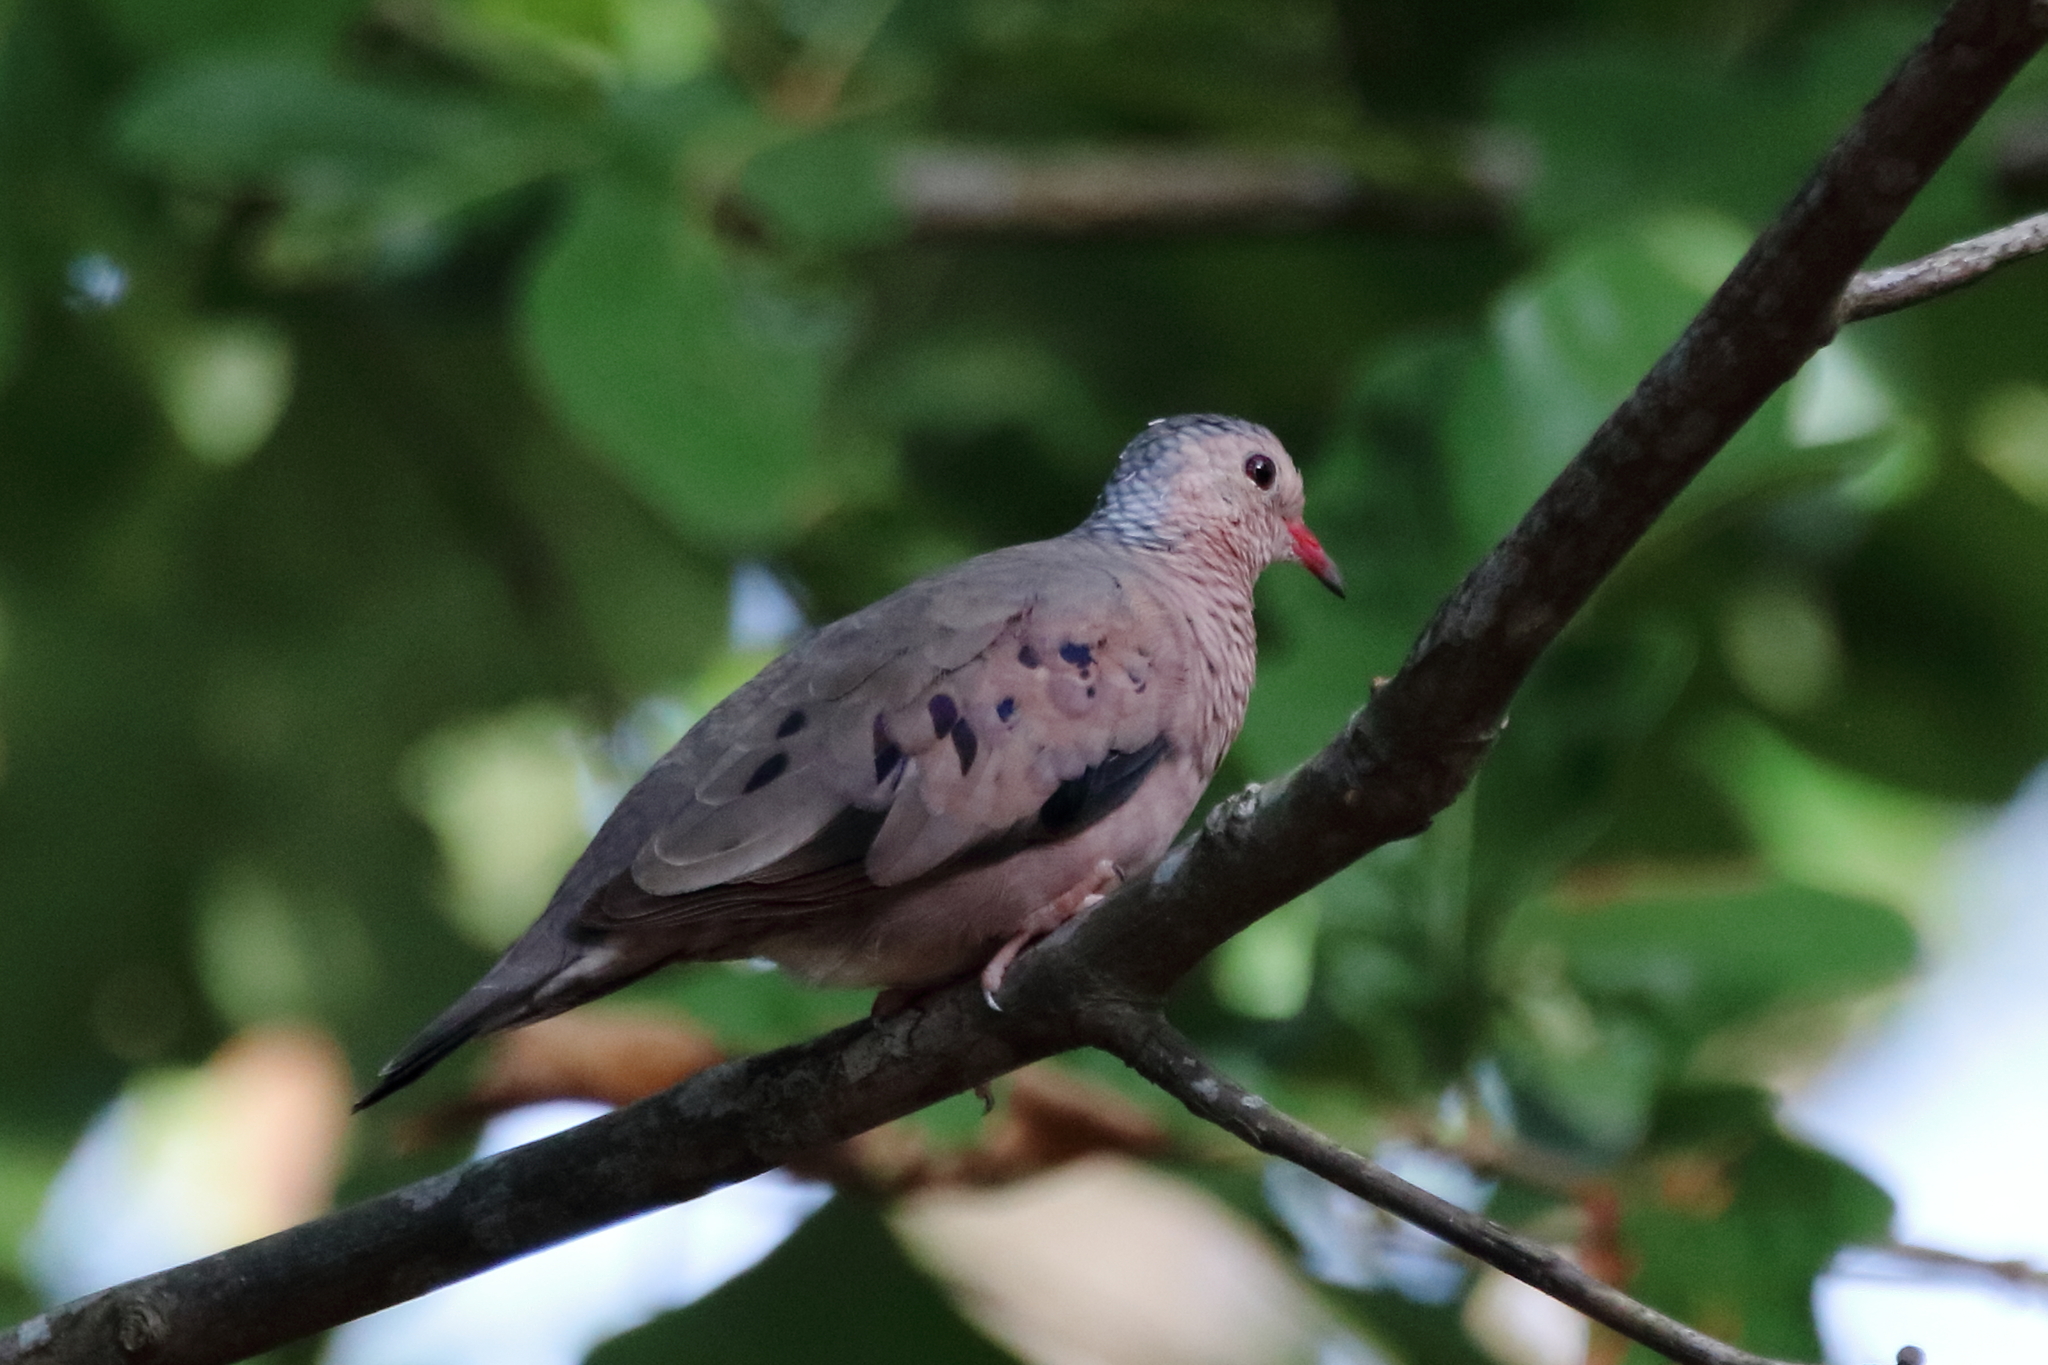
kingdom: Animalia
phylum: Chordata
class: Aves
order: Columbiformes
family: Columbidae
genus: Columbina
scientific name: Columbina passerina
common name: Common ground-dove
